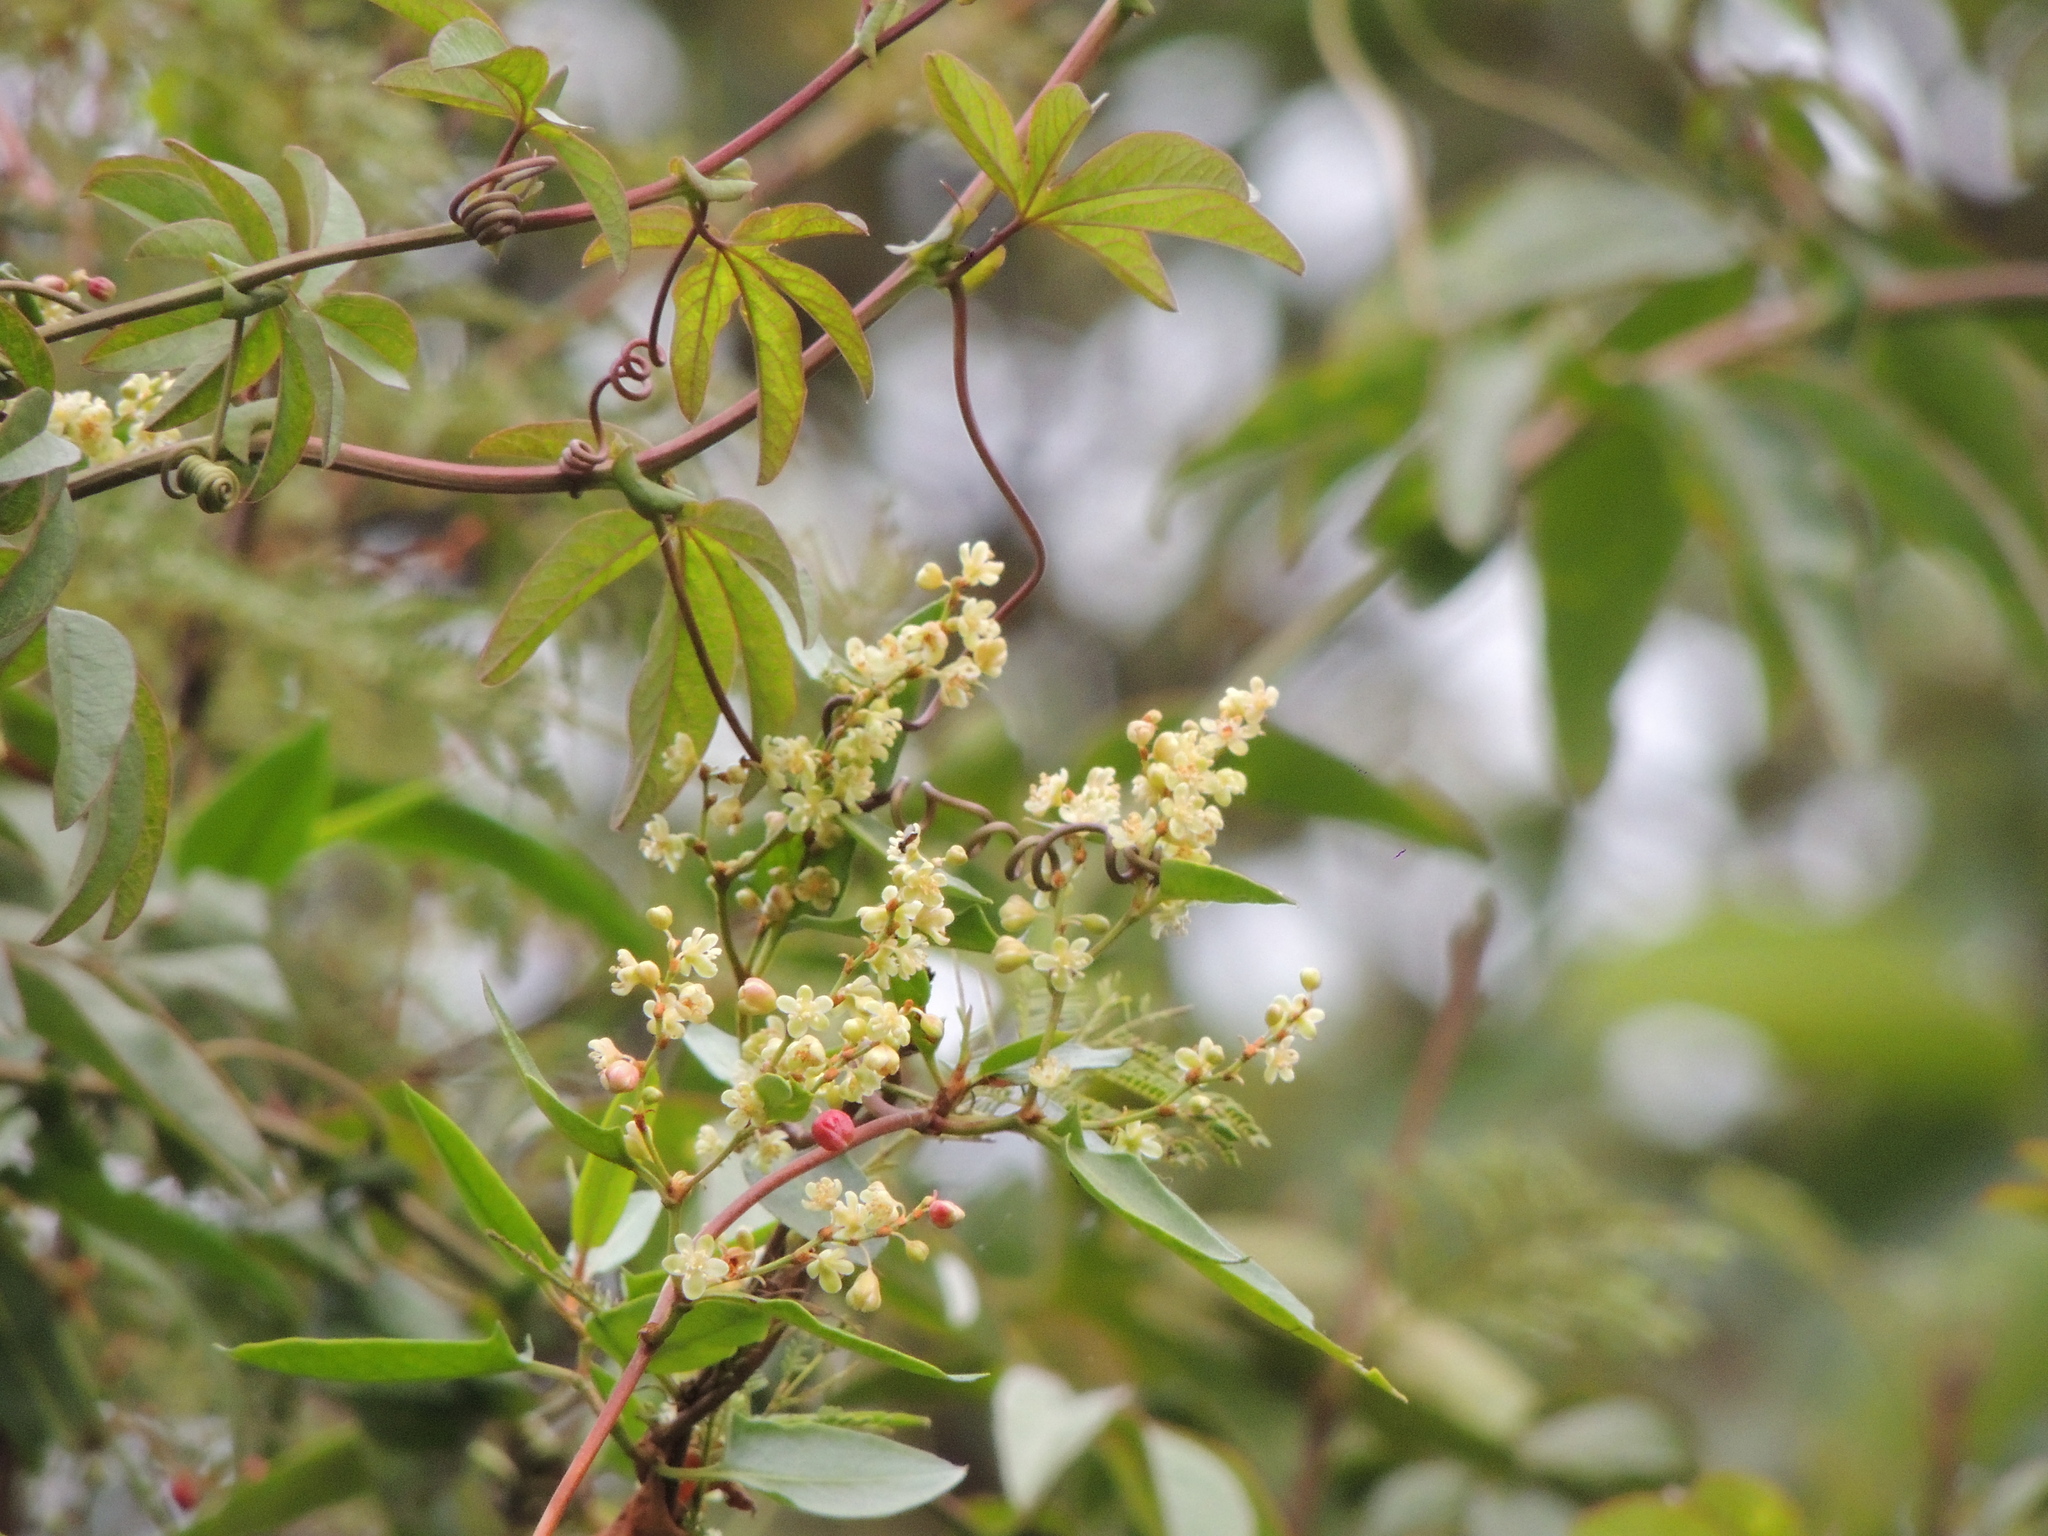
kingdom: Plantae
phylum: Tracheophyta
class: Magnoliopsida
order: Caryophyllales
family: Polygonaceae
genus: Muehlenbeckia
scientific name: Muehlenbeckia sagittifolia
